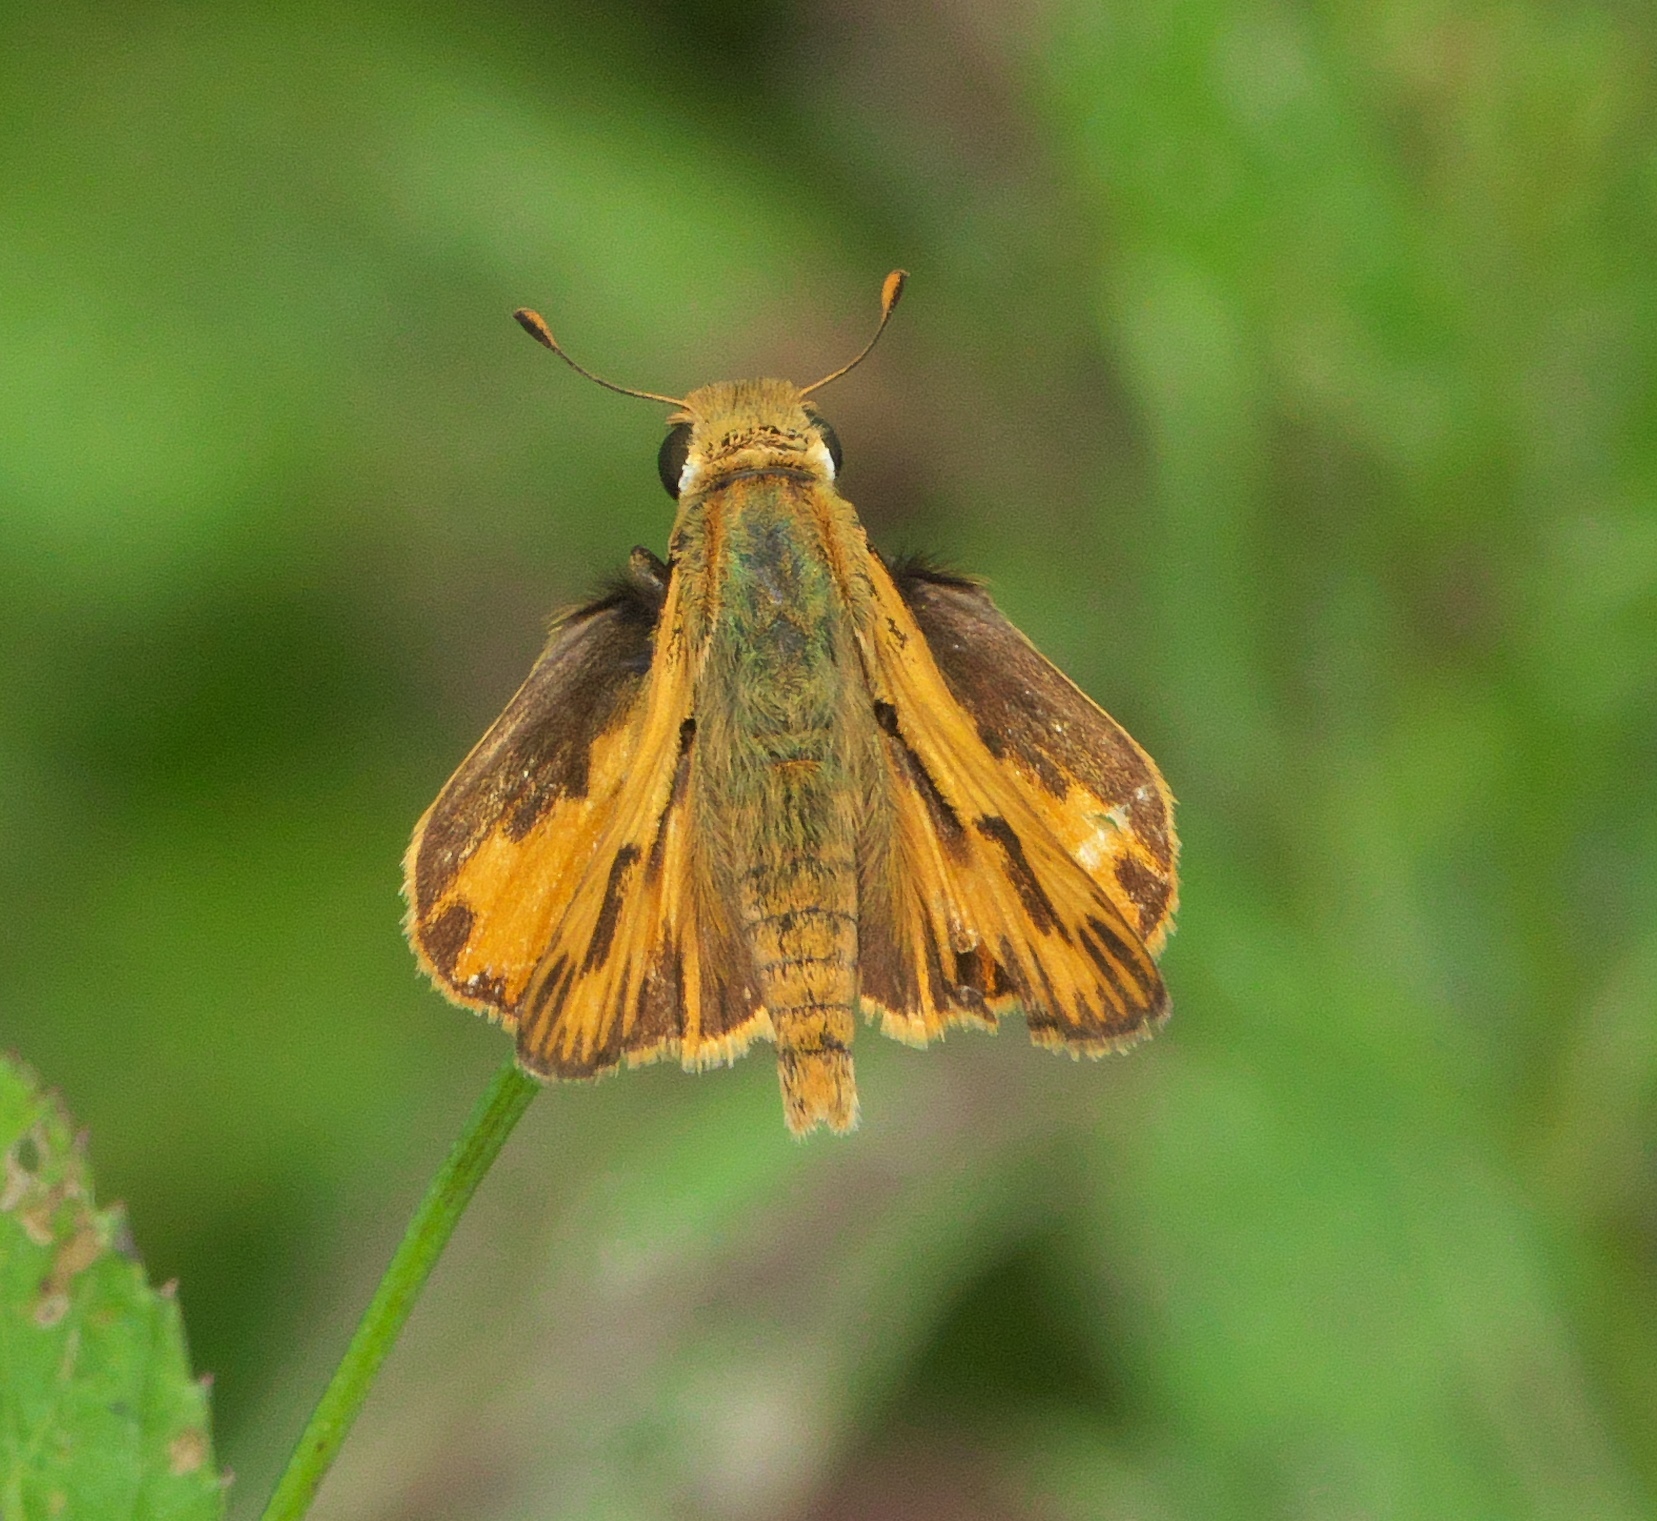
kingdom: Animalia
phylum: Arthropoda
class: Insecta
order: Lepidoptera
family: Hesperiidae
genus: Hylephila
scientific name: Hylephila phyleus
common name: Fiery skipper
